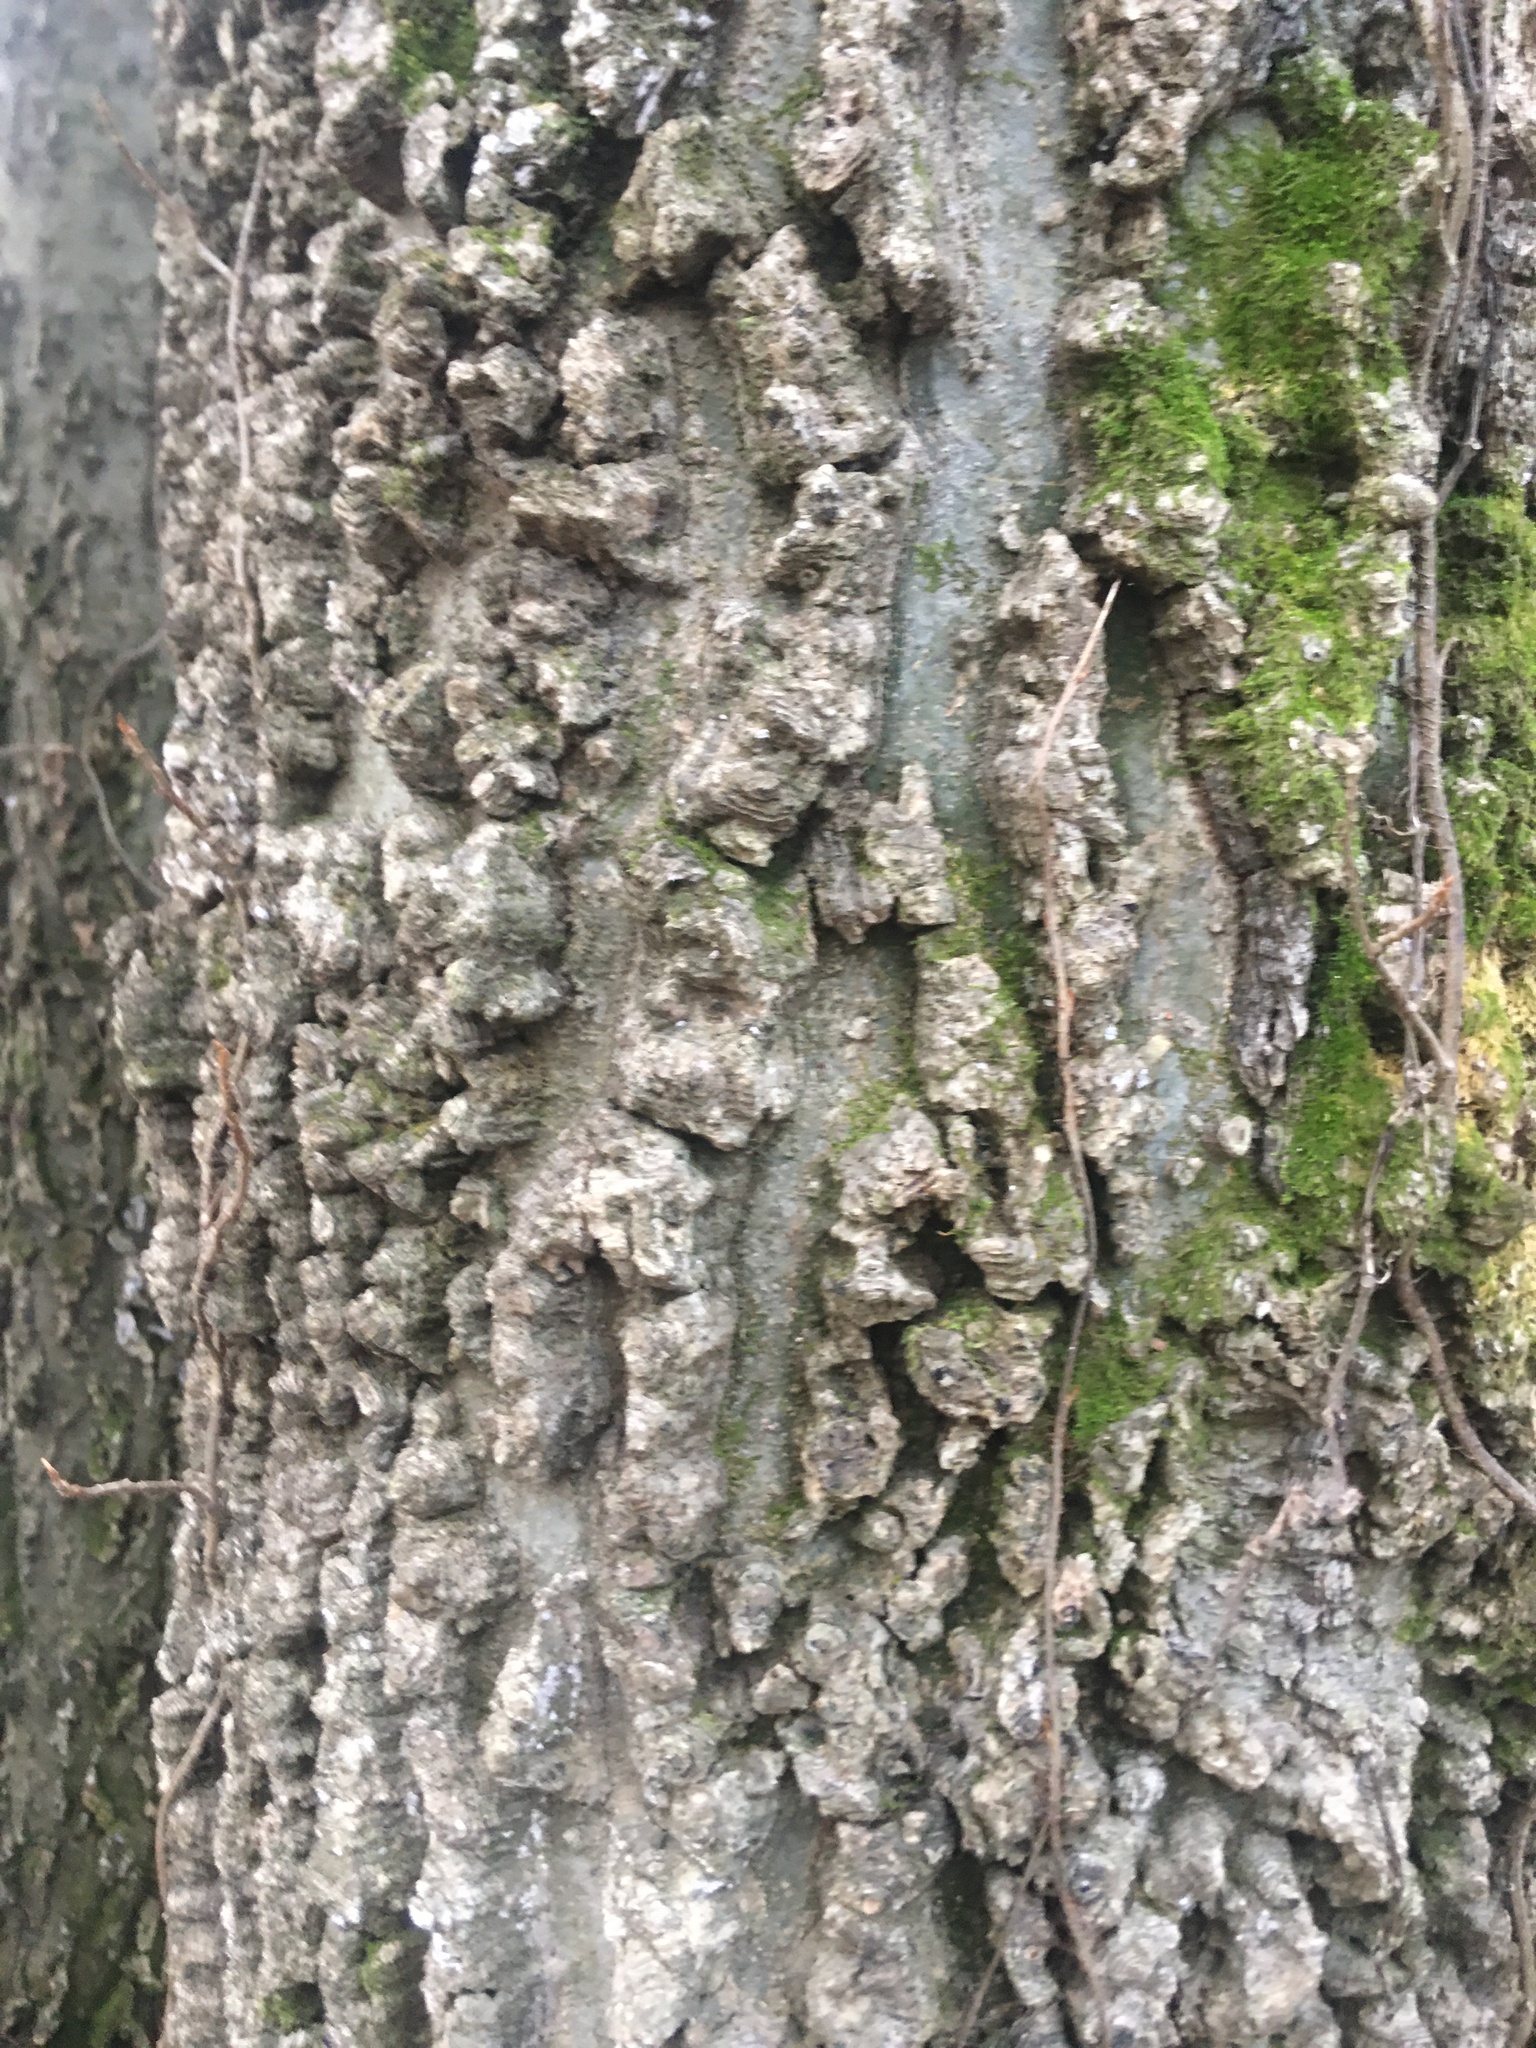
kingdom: Plantae
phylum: Tracheophyta
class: Magnoliopsida
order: Rosales
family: Cannabaceae
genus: Celtis
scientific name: Celtis occidentalis
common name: Common hackberry
